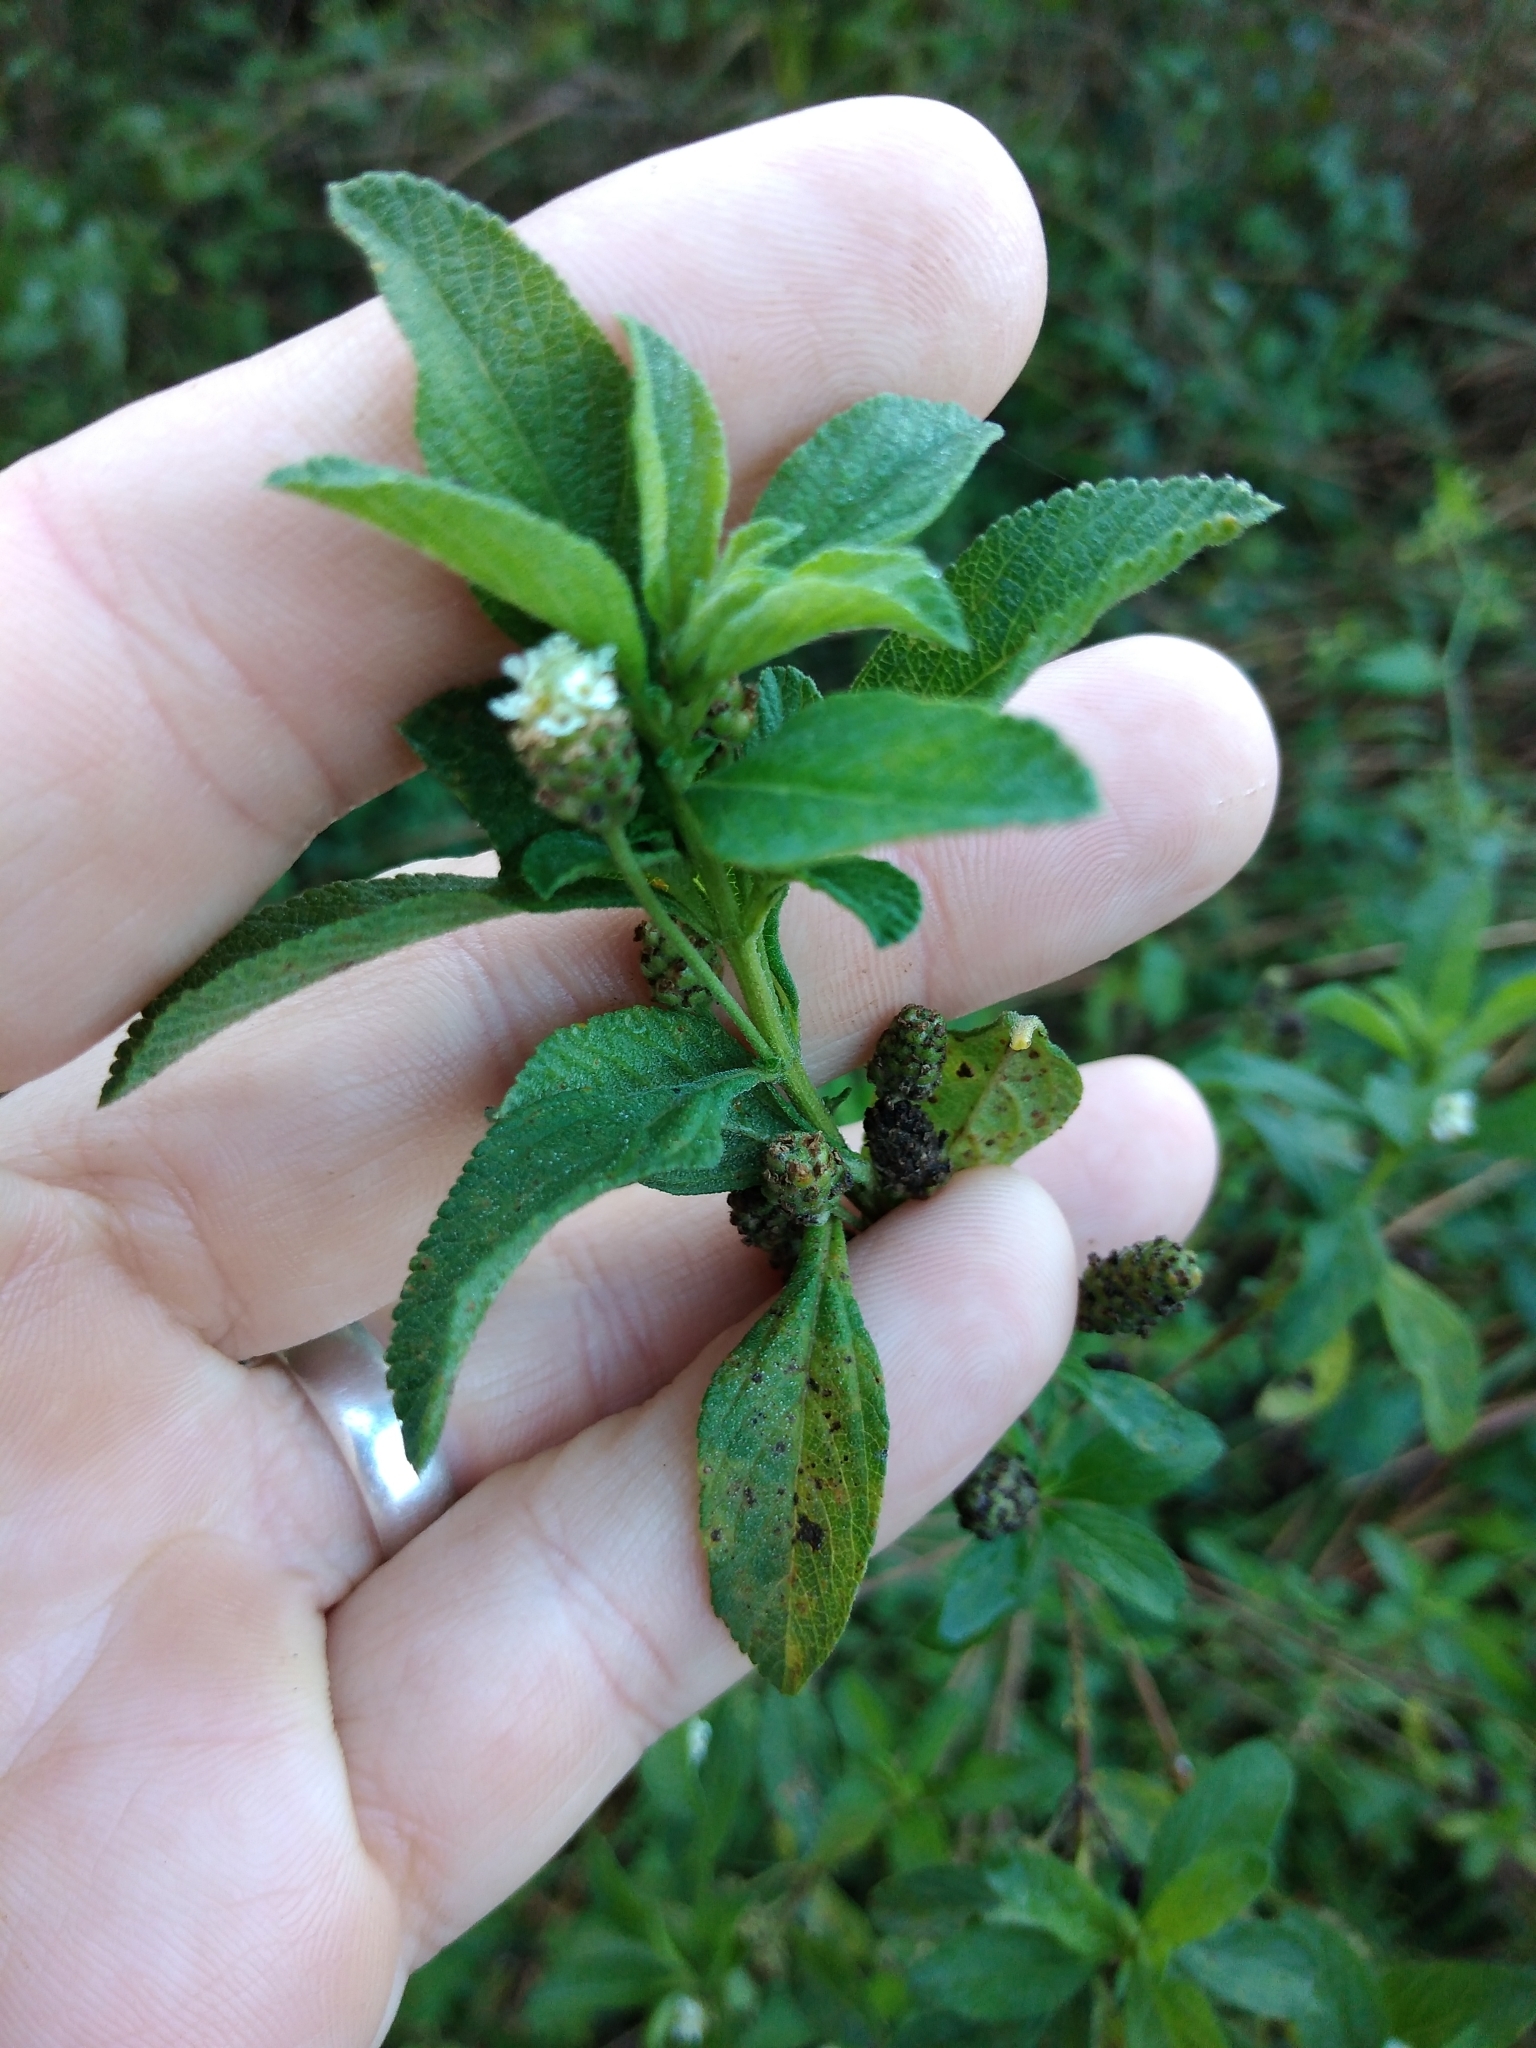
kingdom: Plantae
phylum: Tracheophyta
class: Magnoliopsida
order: Lamiales
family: Verbenaceae
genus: Lippia
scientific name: Lippia javanica
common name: Lemonbush
